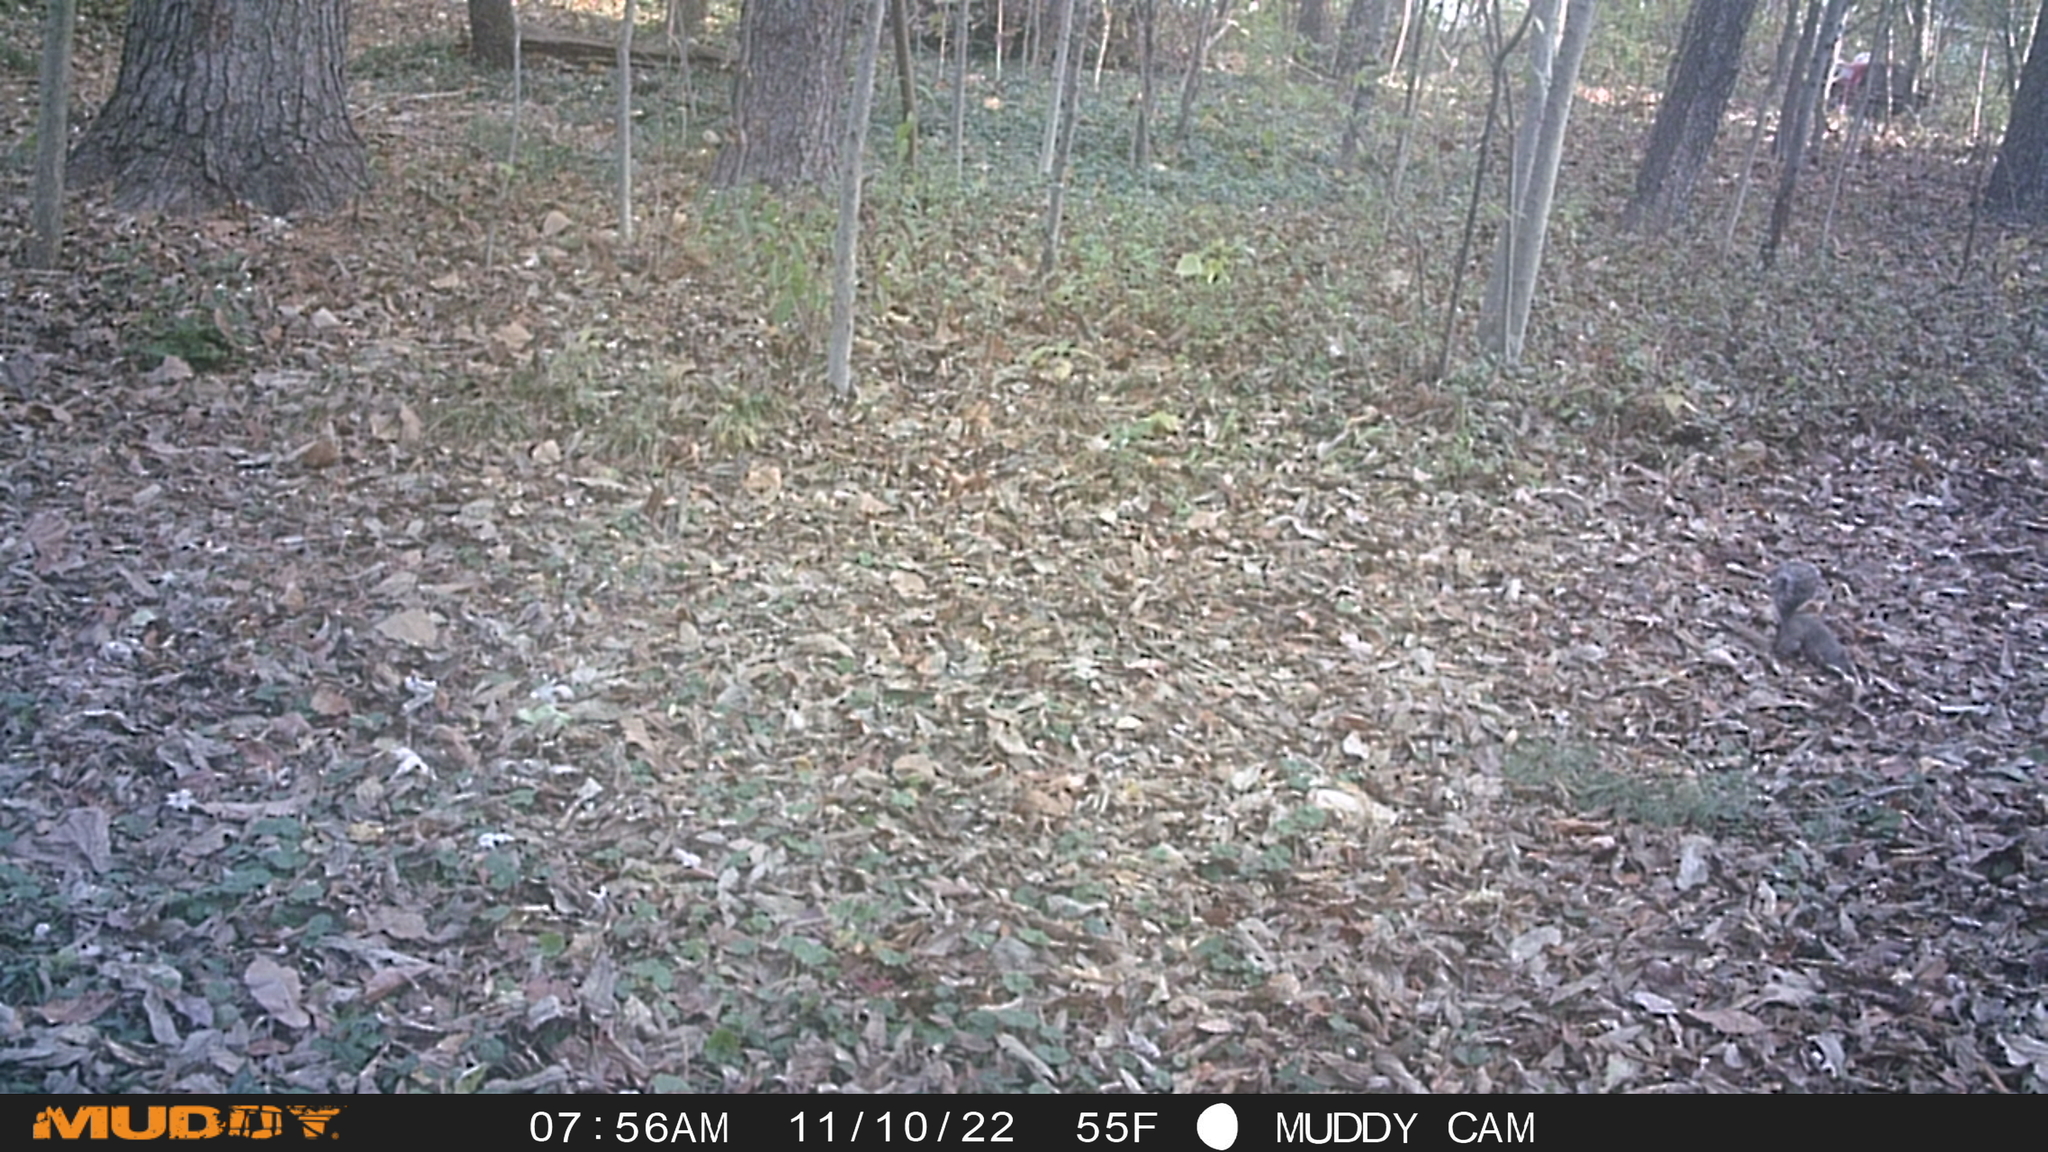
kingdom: Animalia
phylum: Chordata
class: Mammalia
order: Rodentia
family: Sciuridae
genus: Sciurus
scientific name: Sciurus carolinensis
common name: Eastern gray squirrel
